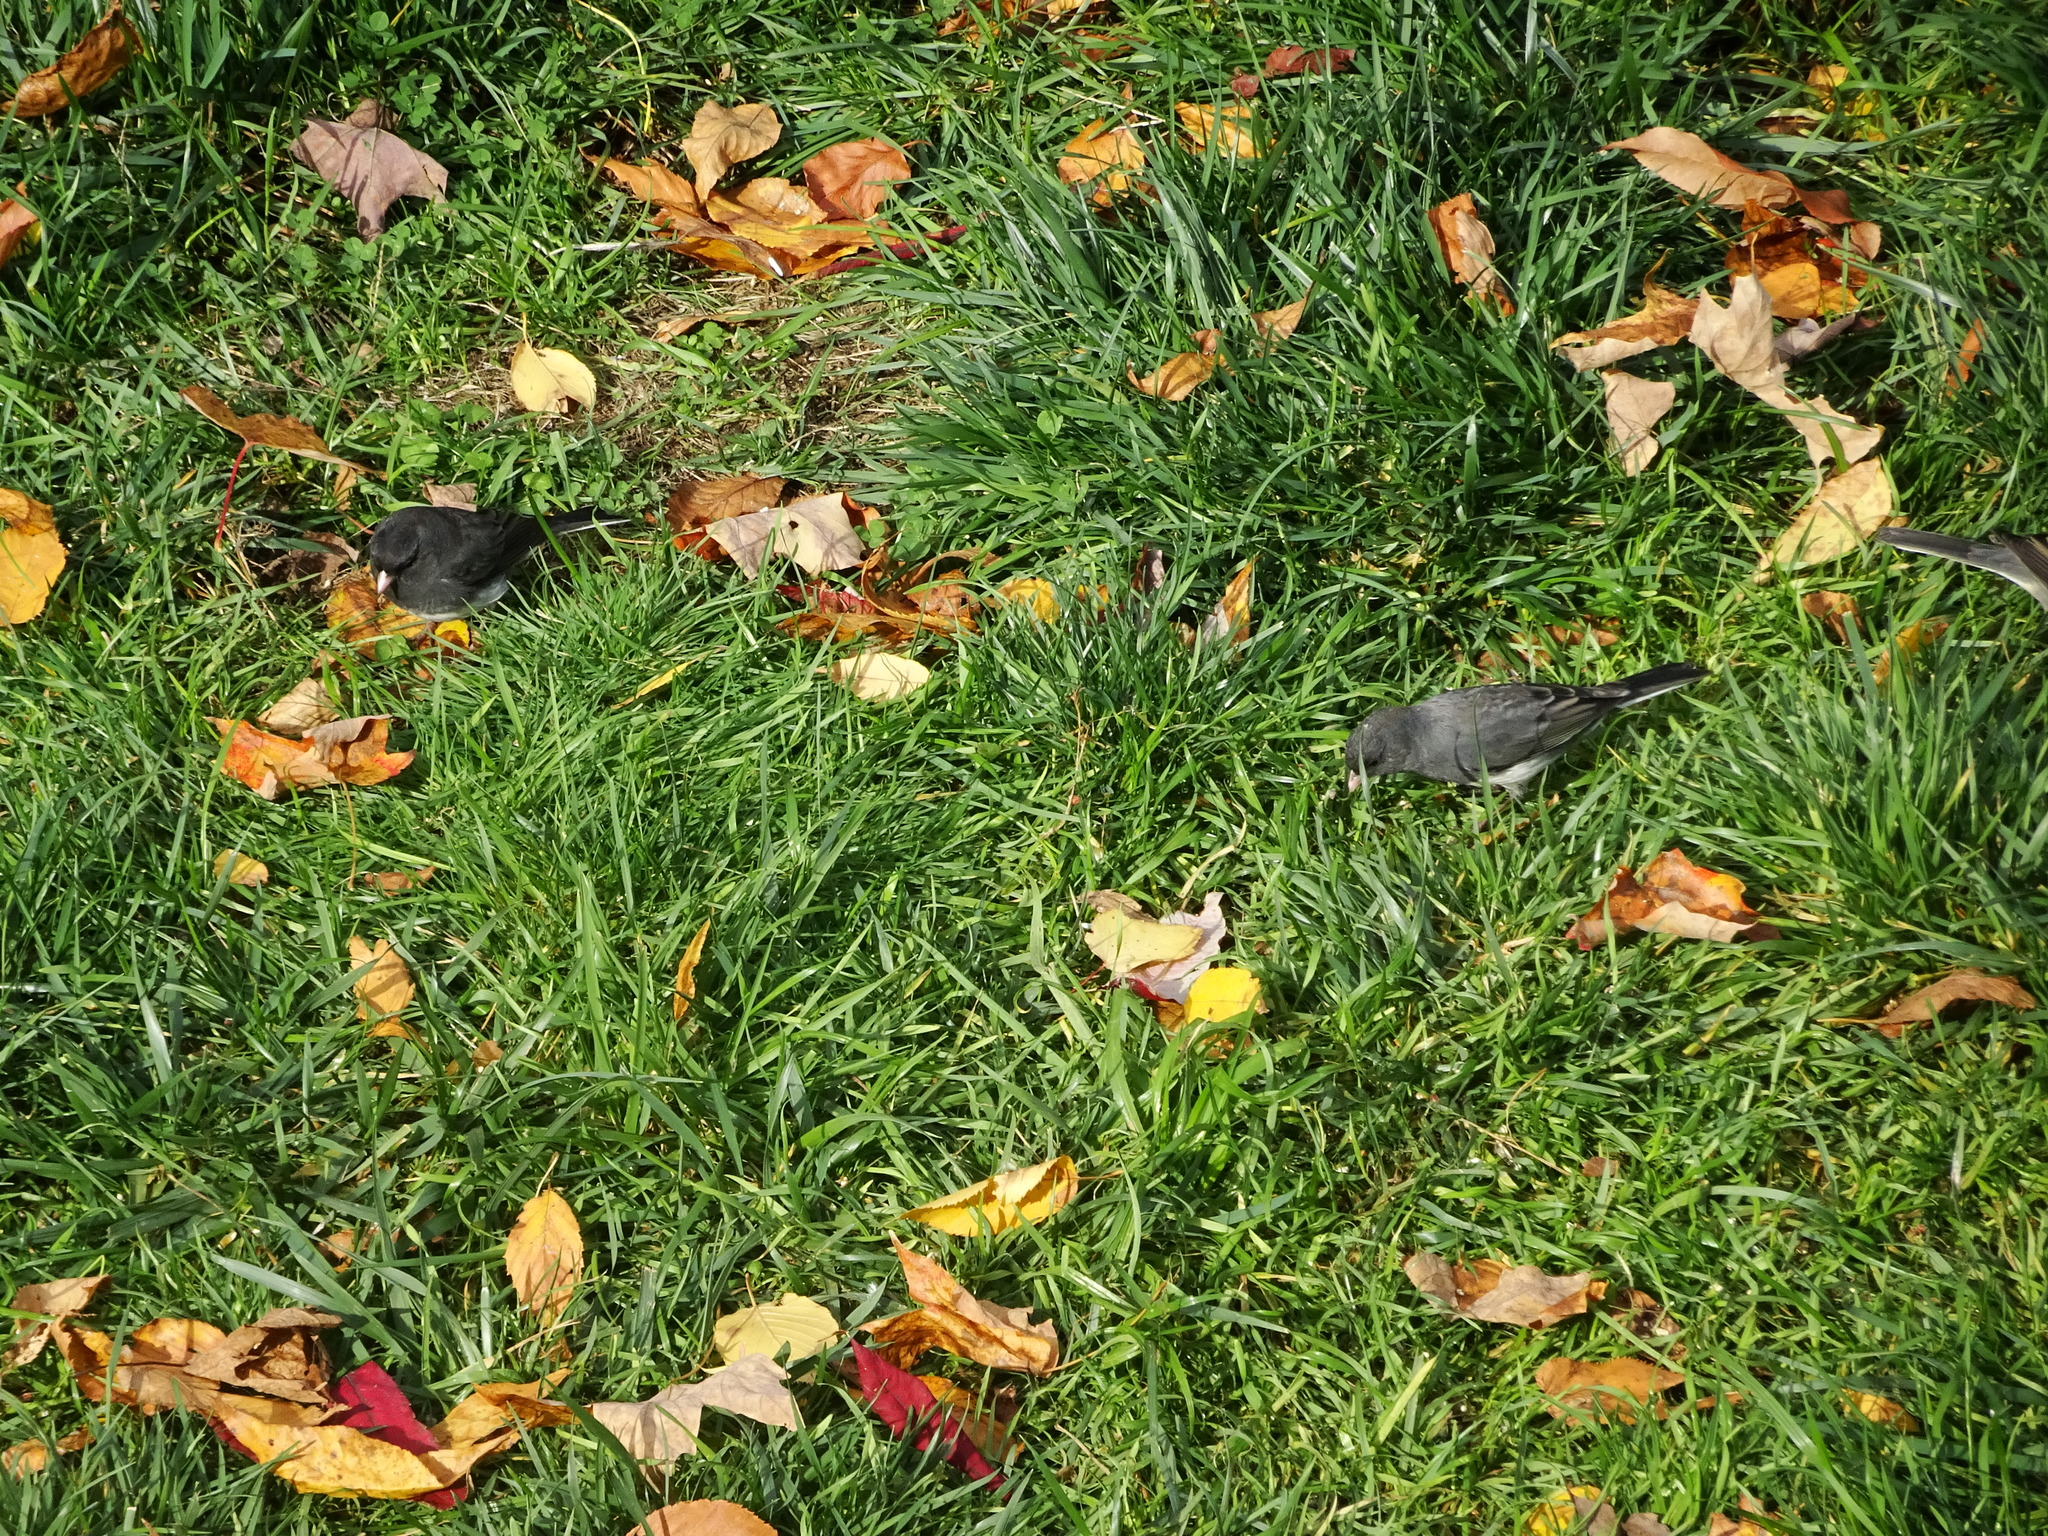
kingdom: Animalia
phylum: Chordata
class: Aves
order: Passeriformes
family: Passerellidae
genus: Junco
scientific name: Junco hyemalis
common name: Dark-eyed junco
